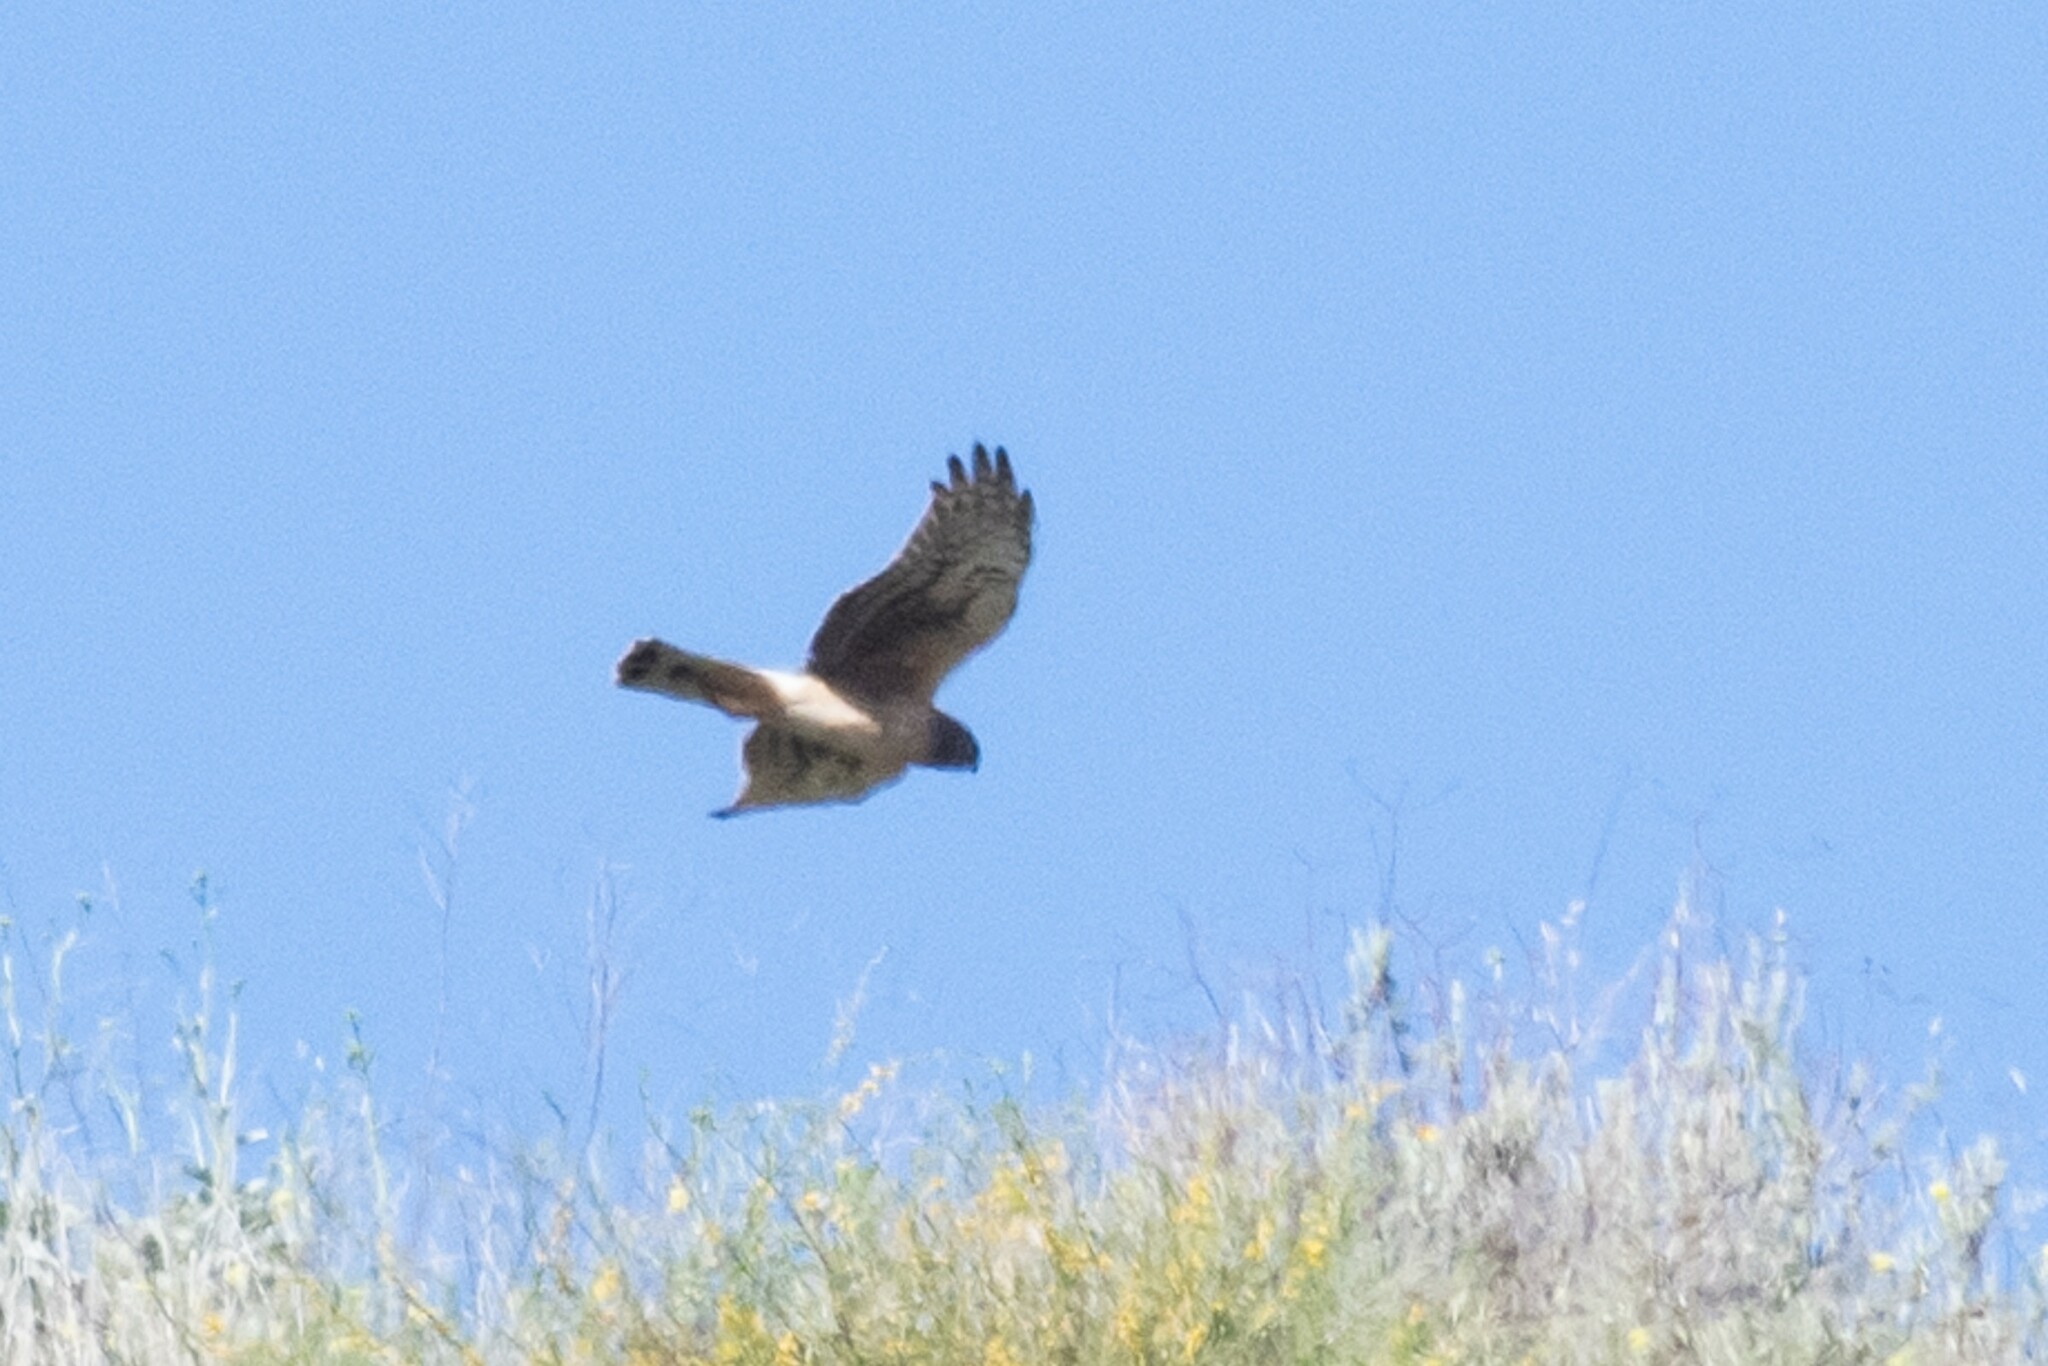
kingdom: Animalia
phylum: Chordata
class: Aves
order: Accipitriformes
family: Accipitridae
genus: Circus
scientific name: Circus cyaneus
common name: Hen harrier
